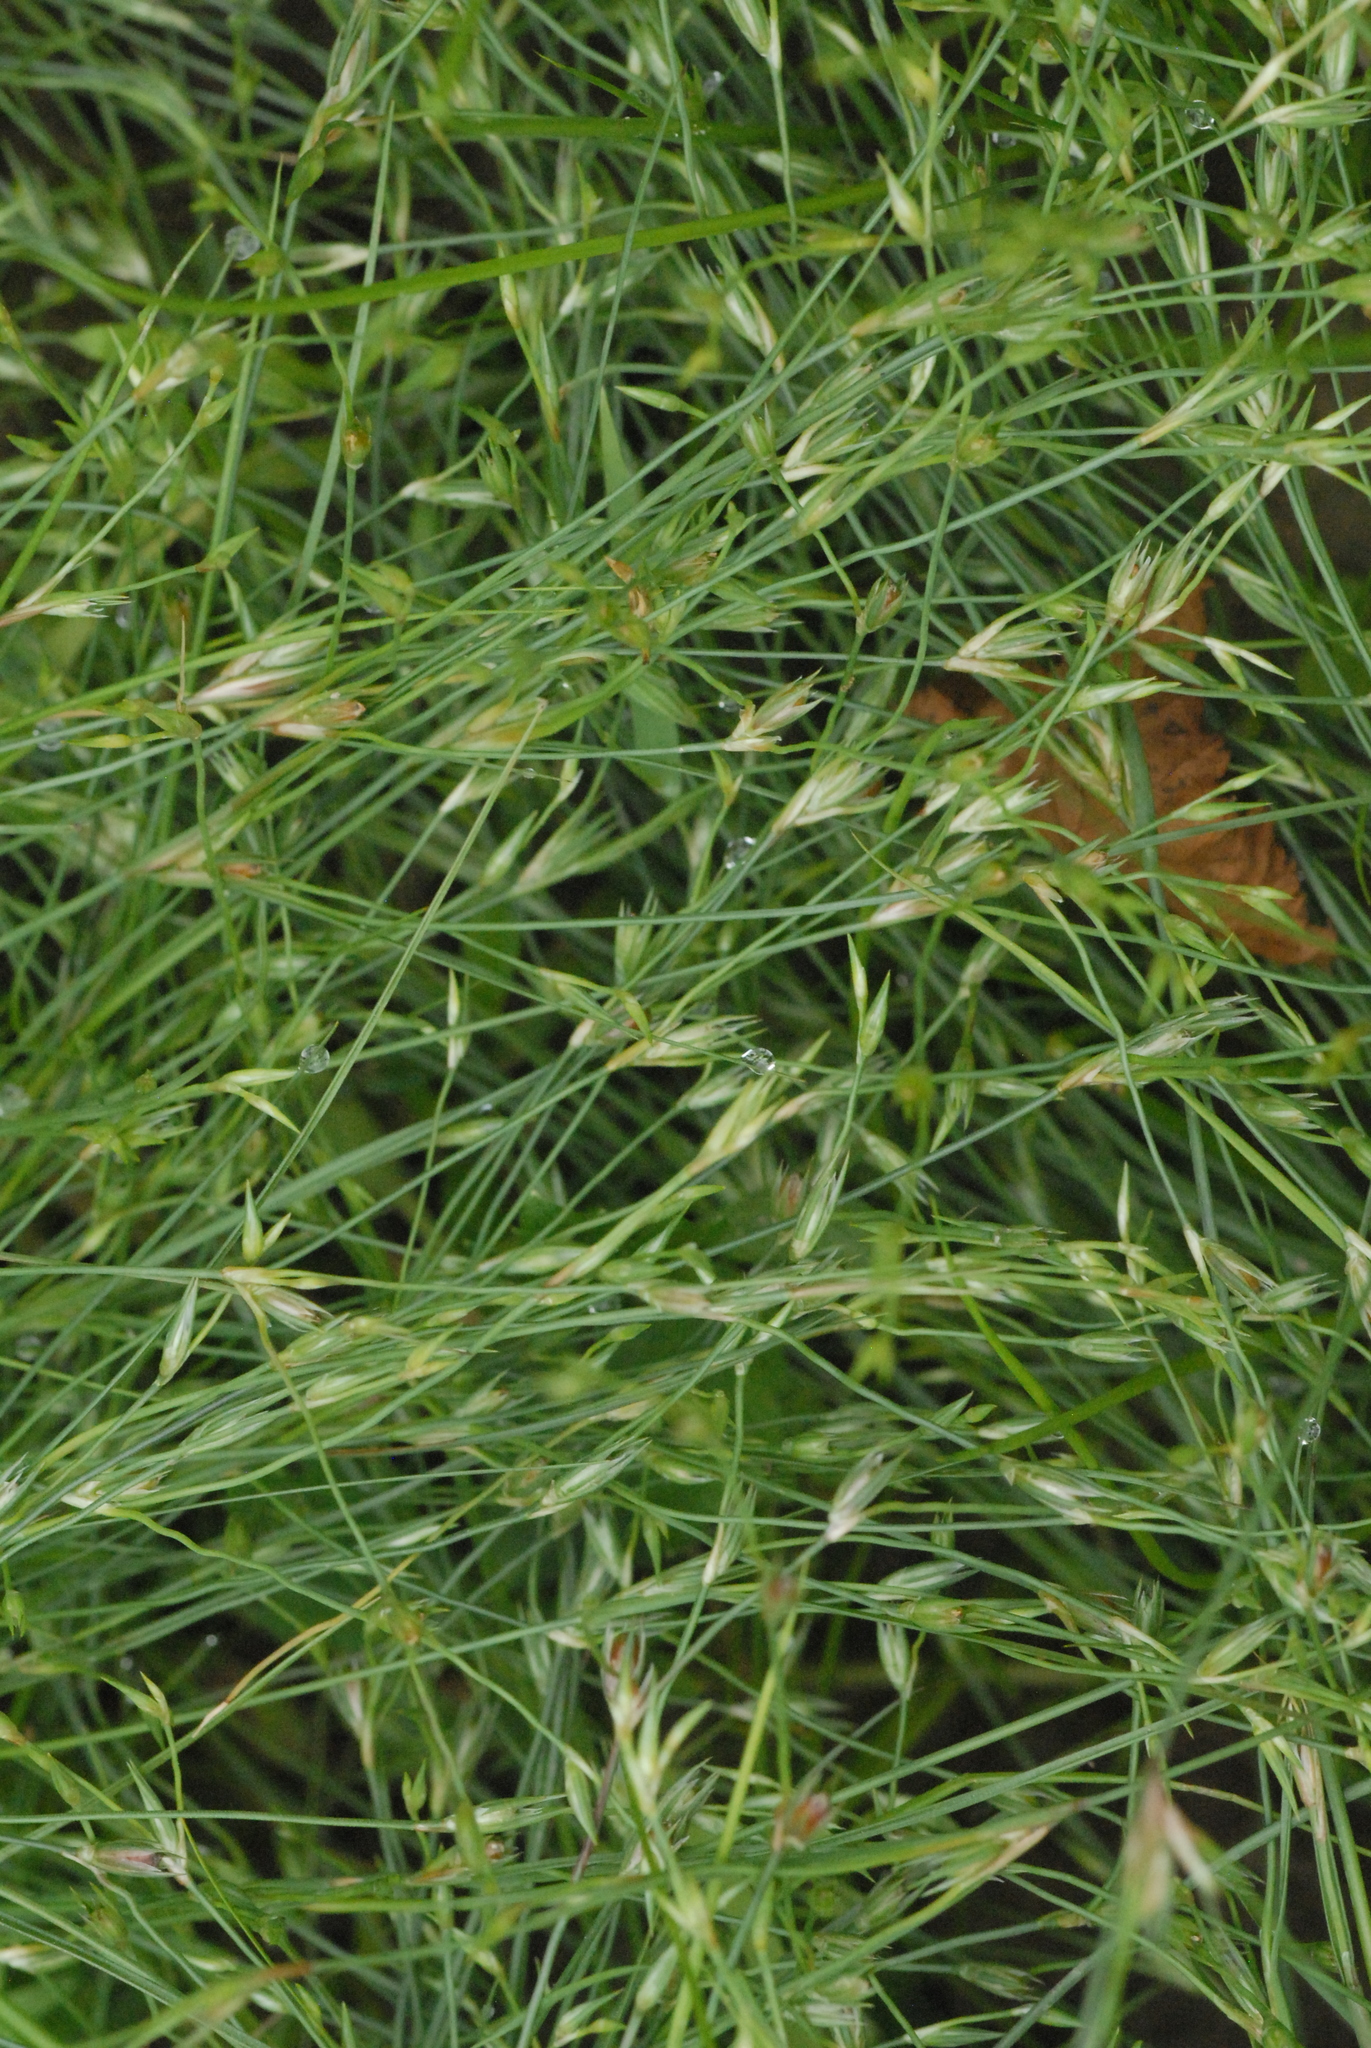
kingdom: Plantae
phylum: Tracheophyta
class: Liliopsida
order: Poales
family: Juncaceae
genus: Juncus
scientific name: Juncus bufonius
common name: Toad rush
